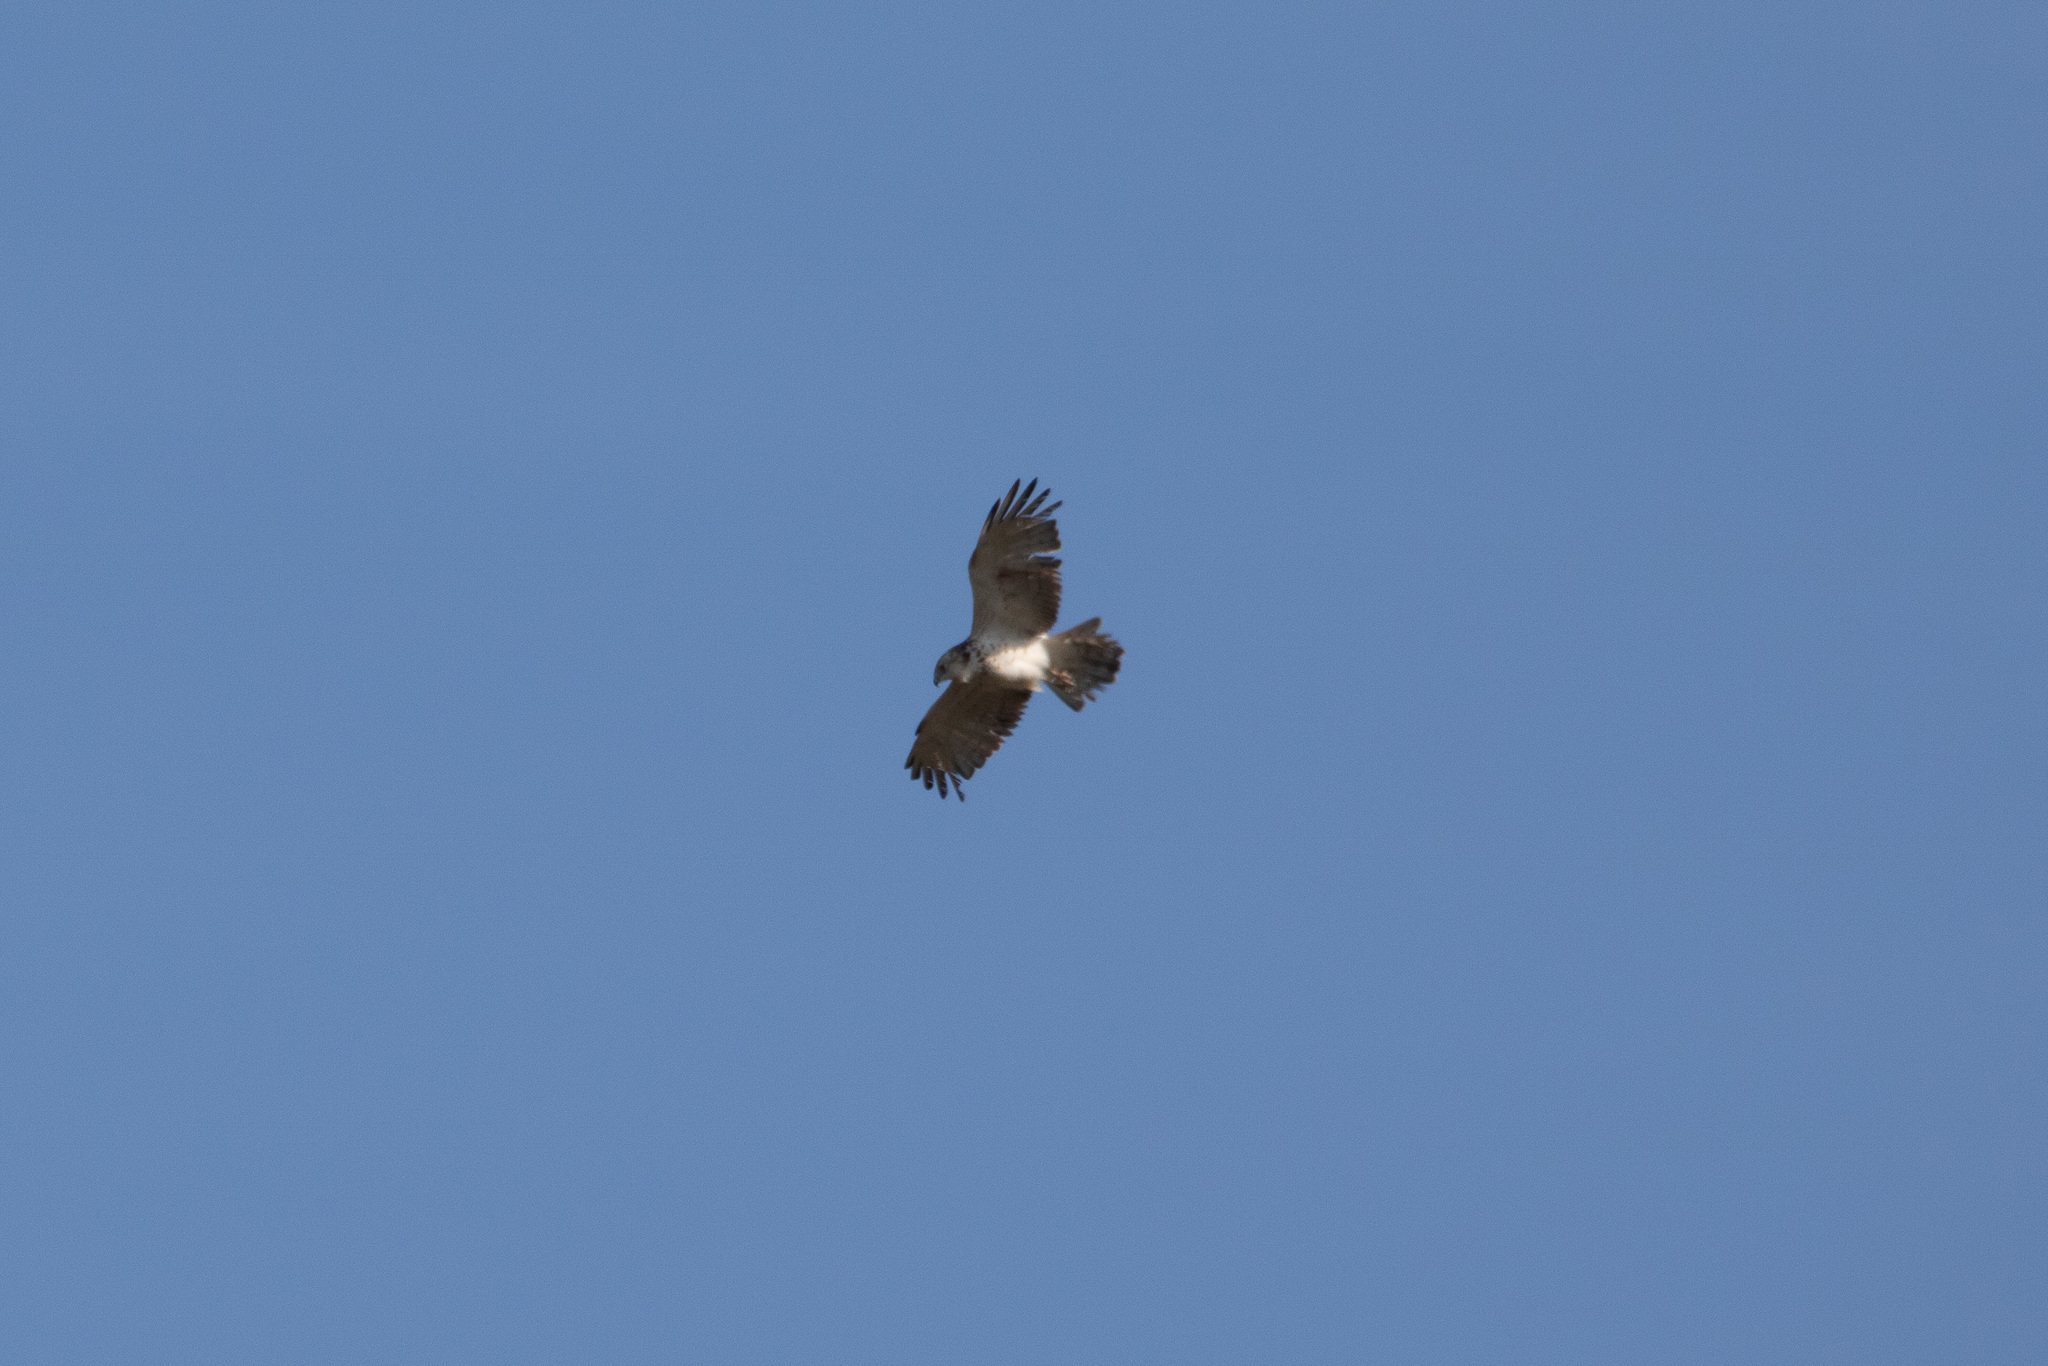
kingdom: Animalia
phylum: Chordata
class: Aves
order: Accipitriformes
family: Accipitridae
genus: Circaetus
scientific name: Circaetus gallicus
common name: Short-toed snake eagle
